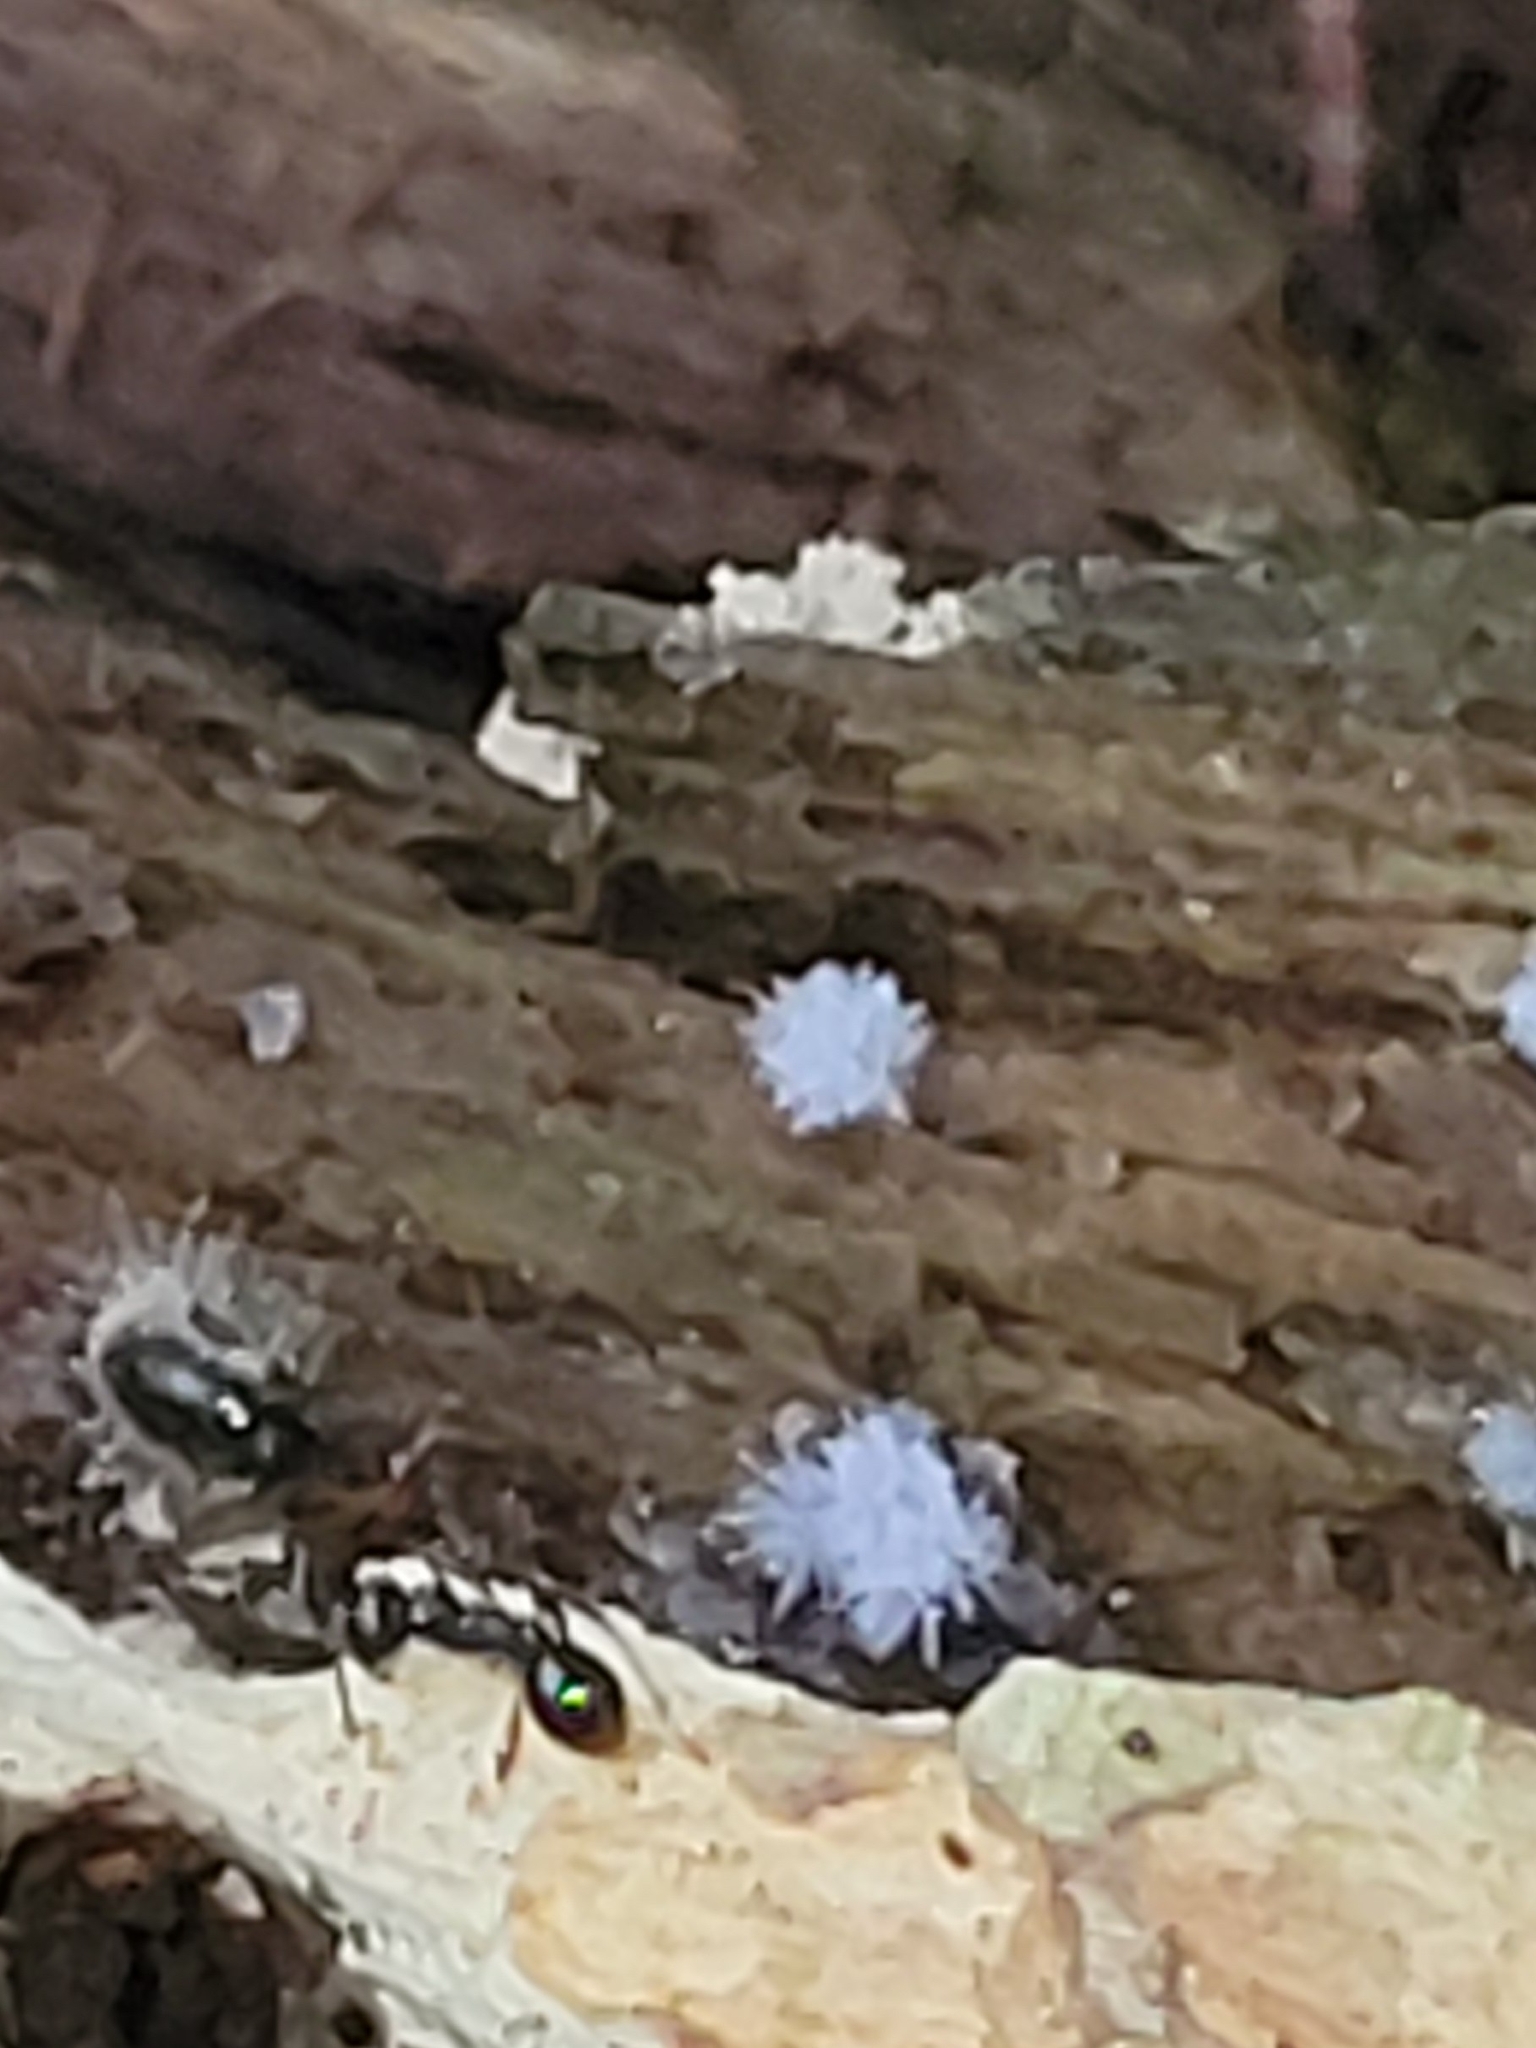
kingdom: Fungi
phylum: Ascomycota
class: Pezizomycetes
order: Pezizales
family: Pezizaceae
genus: Chromelosporiopsis
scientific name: Chromelosporiopsis coerulescens
